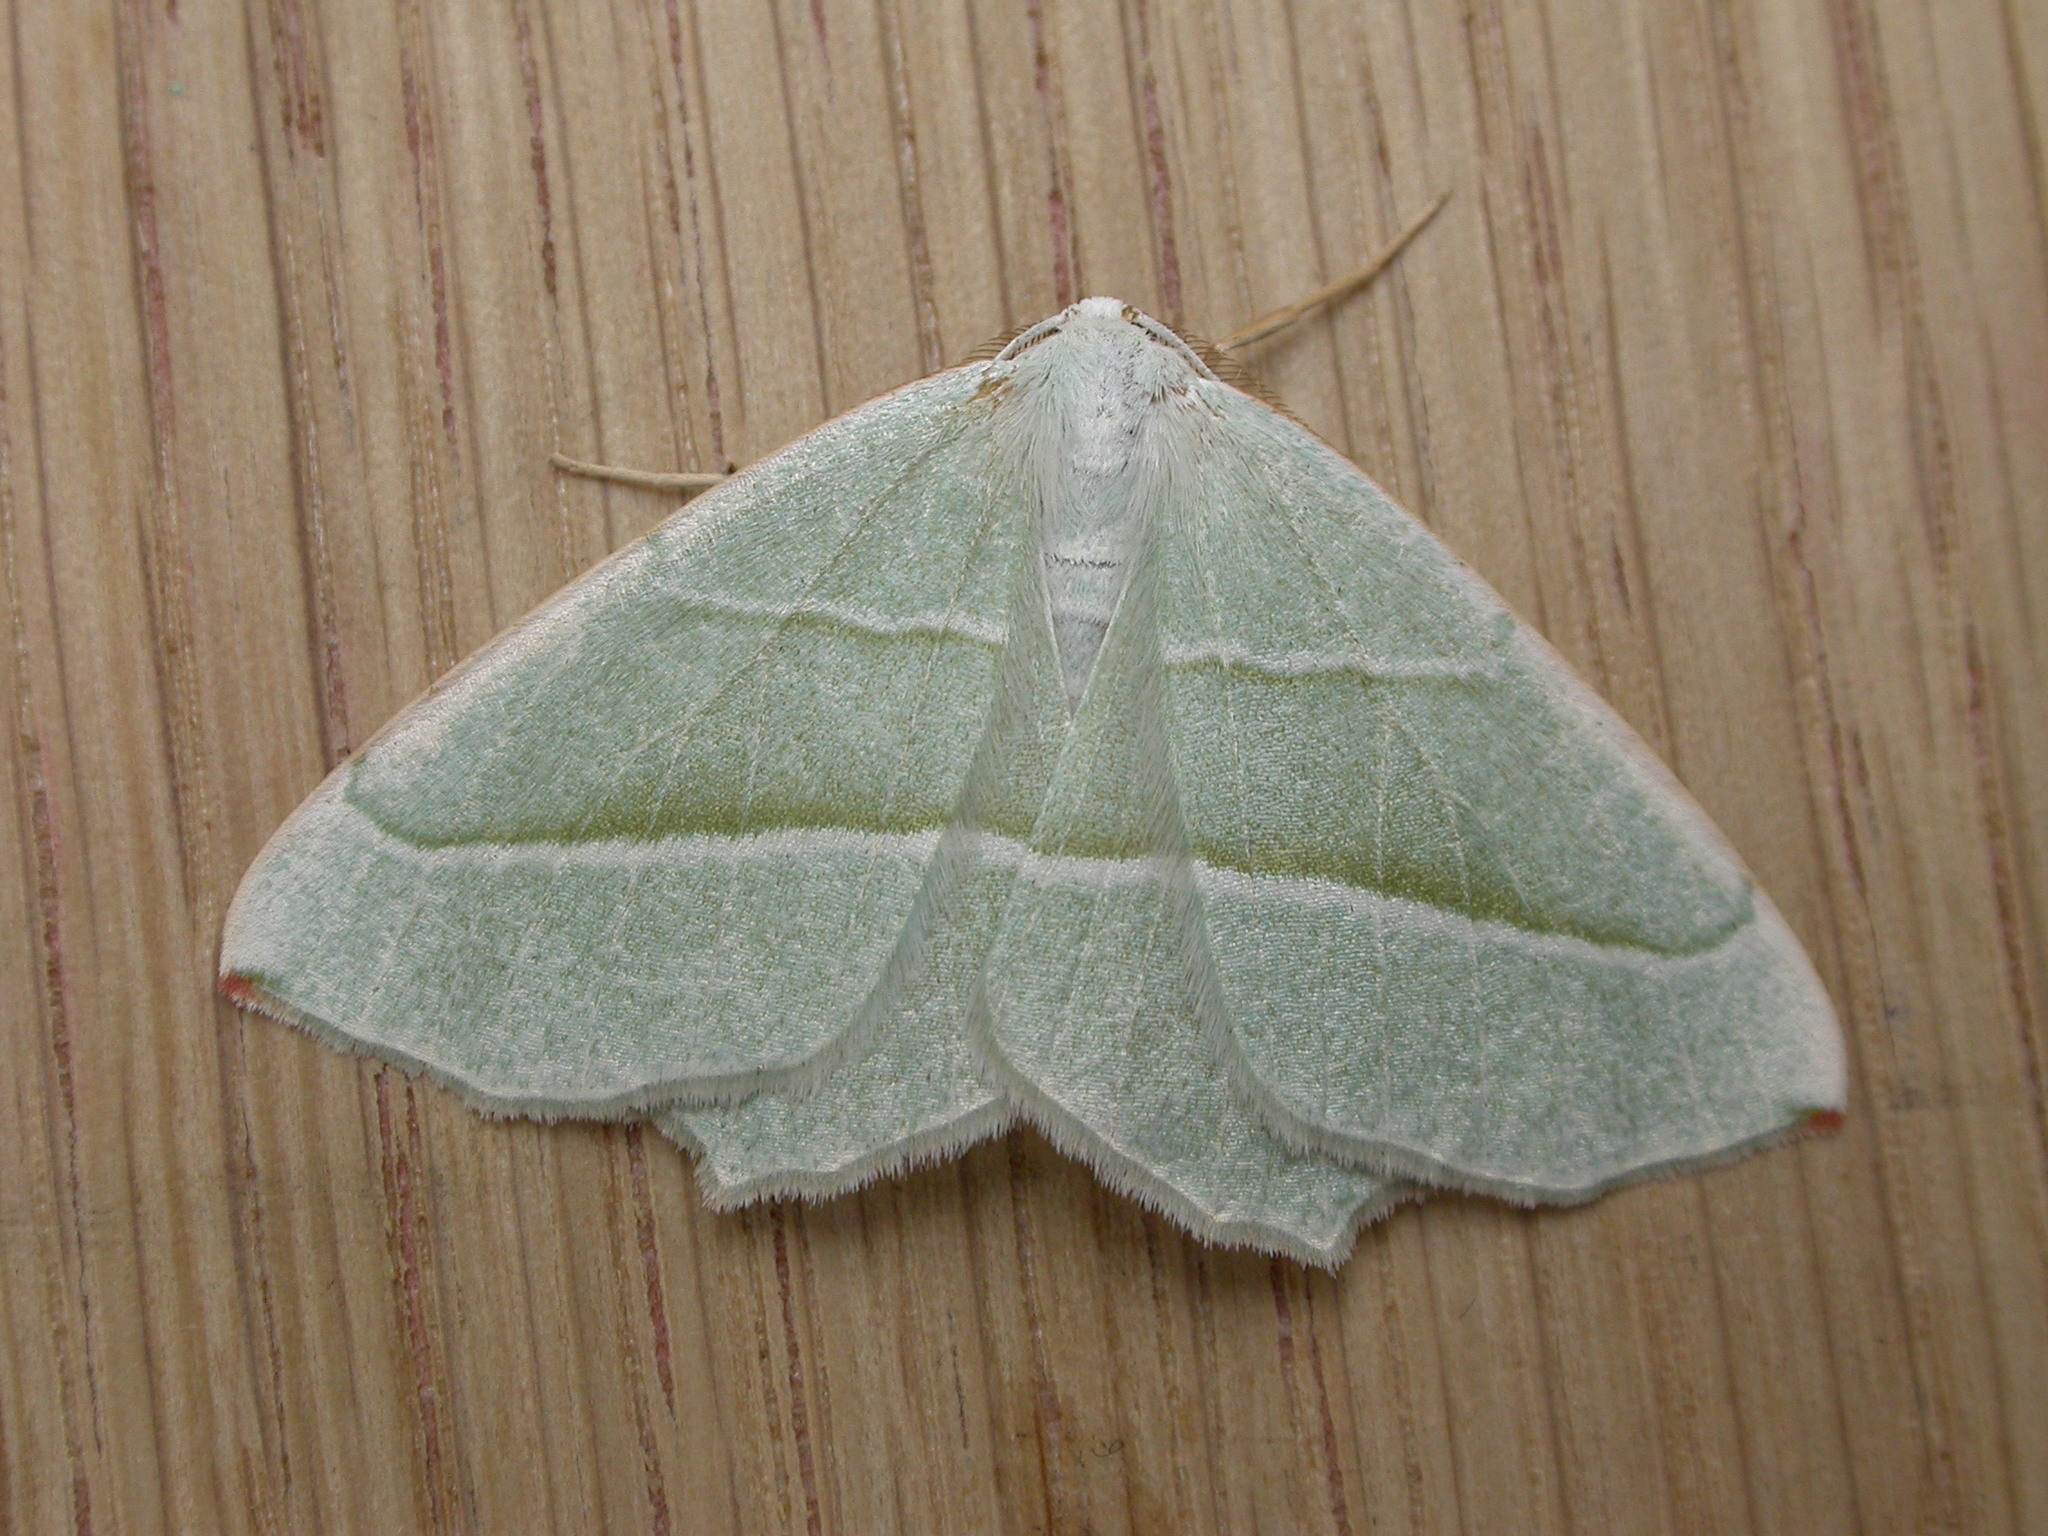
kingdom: Animalia
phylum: Arthropoda
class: Insecta
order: Lepidoptera
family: Geometridae
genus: Campaea
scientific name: Campaea margaritaria
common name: Light emerald
